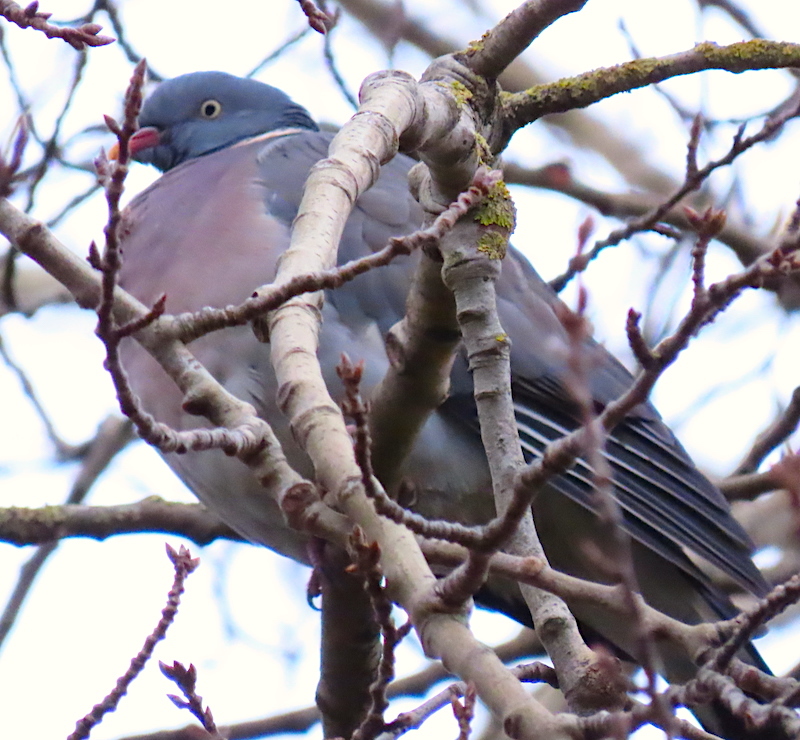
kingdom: Animalia
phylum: Chordata
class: Aves
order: Columbiformes
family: Columbidae
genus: Columba
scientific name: Columba palumbus
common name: Common wood pigeon
